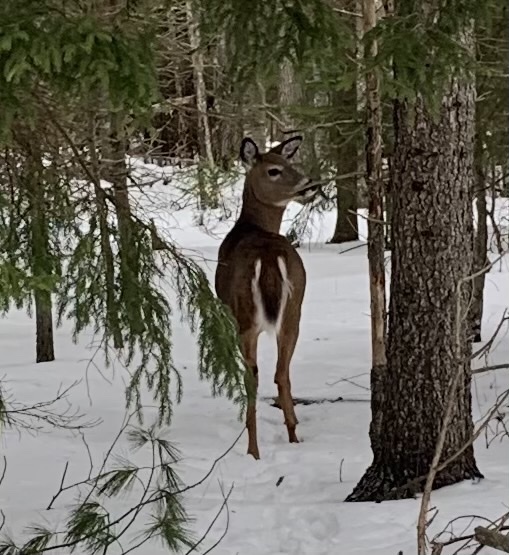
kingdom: Animalia
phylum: Chordata
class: Mammalia
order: Artiodactyla
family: Cervidae
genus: Odocoileus
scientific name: Odocoileus virginianus
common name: White-tailed deer
